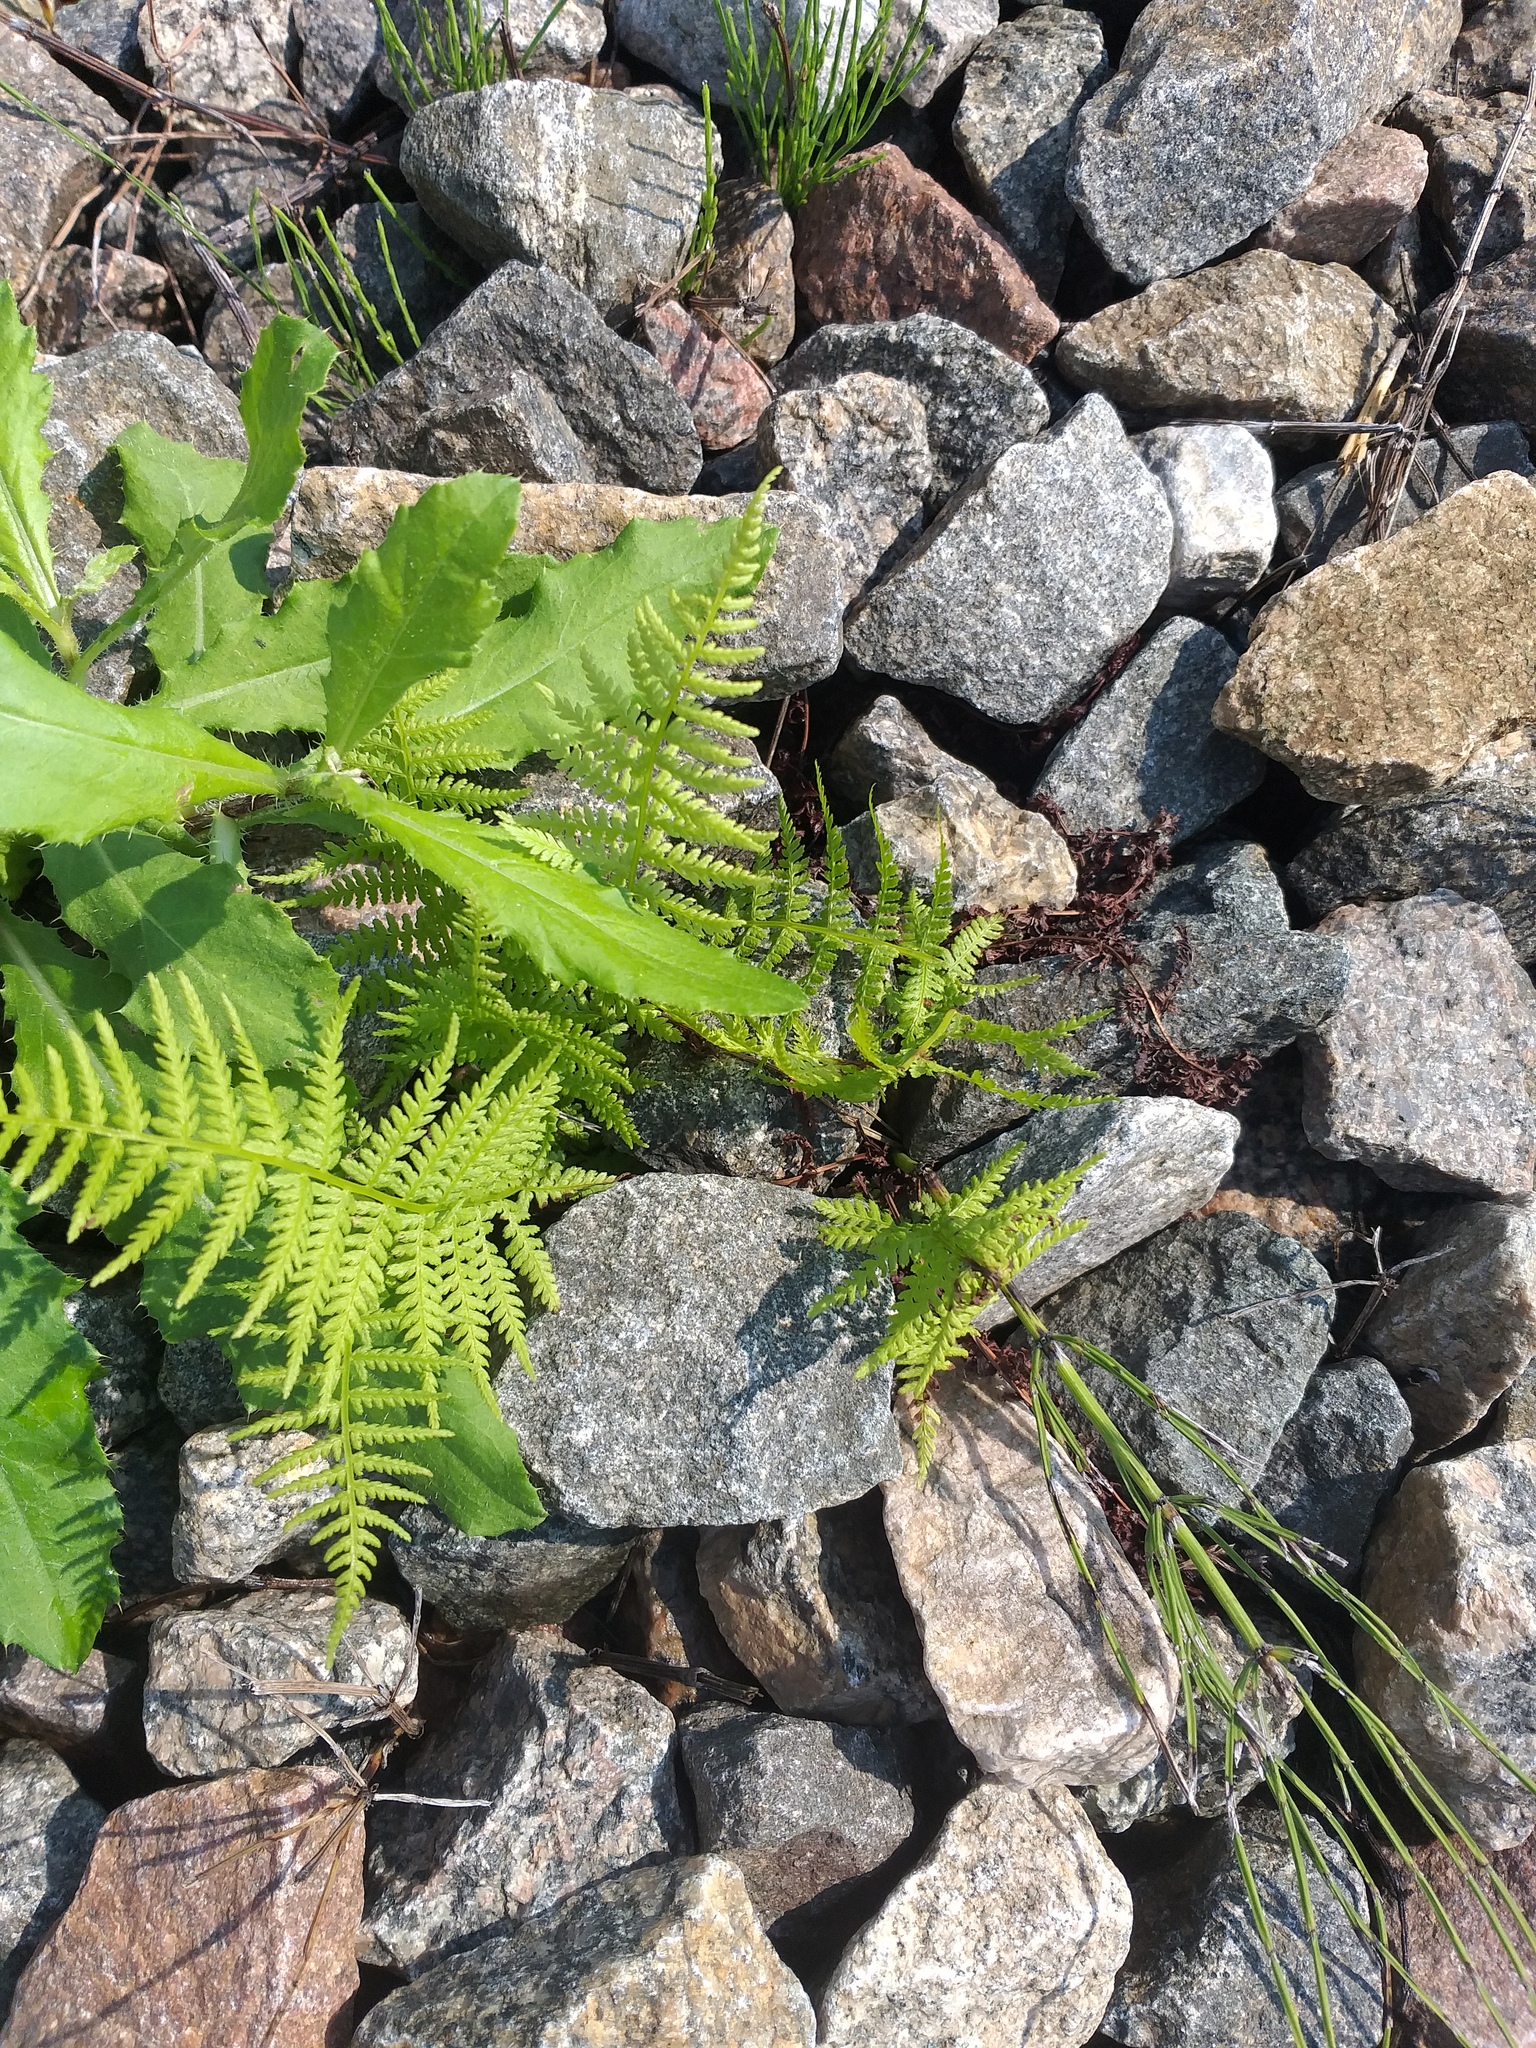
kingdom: Plantae
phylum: Tracheophyta
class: Polypodiopsida
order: Polypodiales
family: Athyriaceae
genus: Athyrium
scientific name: Athyrium filix-femina
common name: Lady fern
